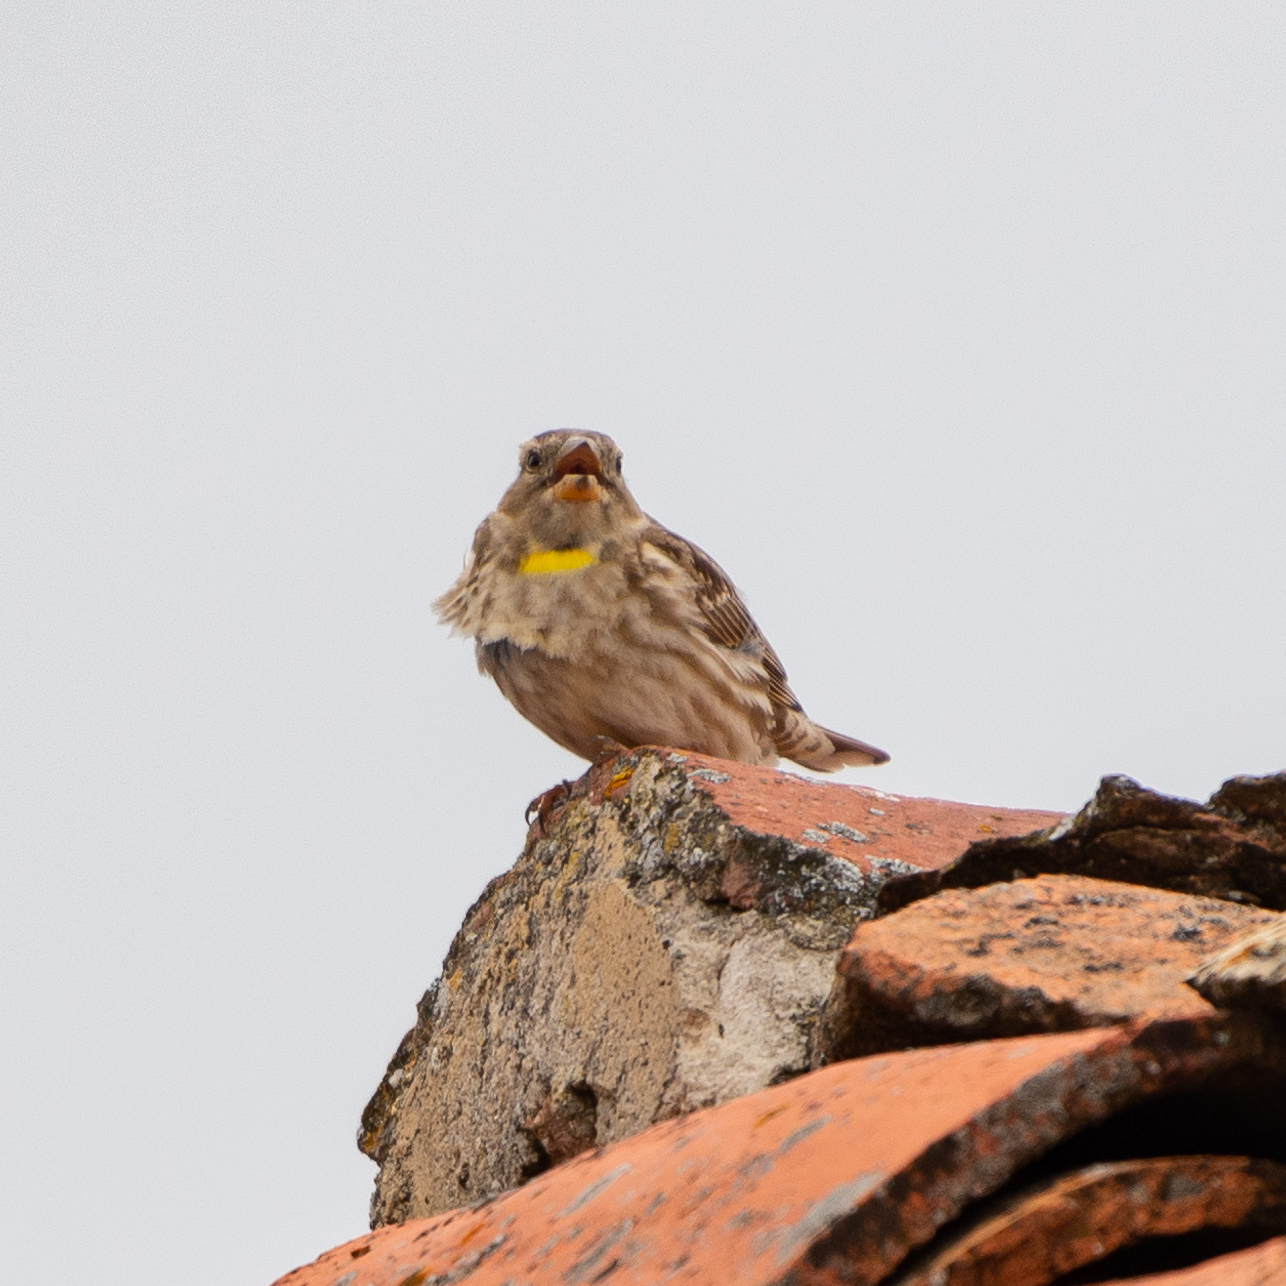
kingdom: Animalia
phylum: Chordata
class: Aves
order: Passeriformes
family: Passeridae
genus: Petronia
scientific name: Petronia petronia
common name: Rock sparrow
